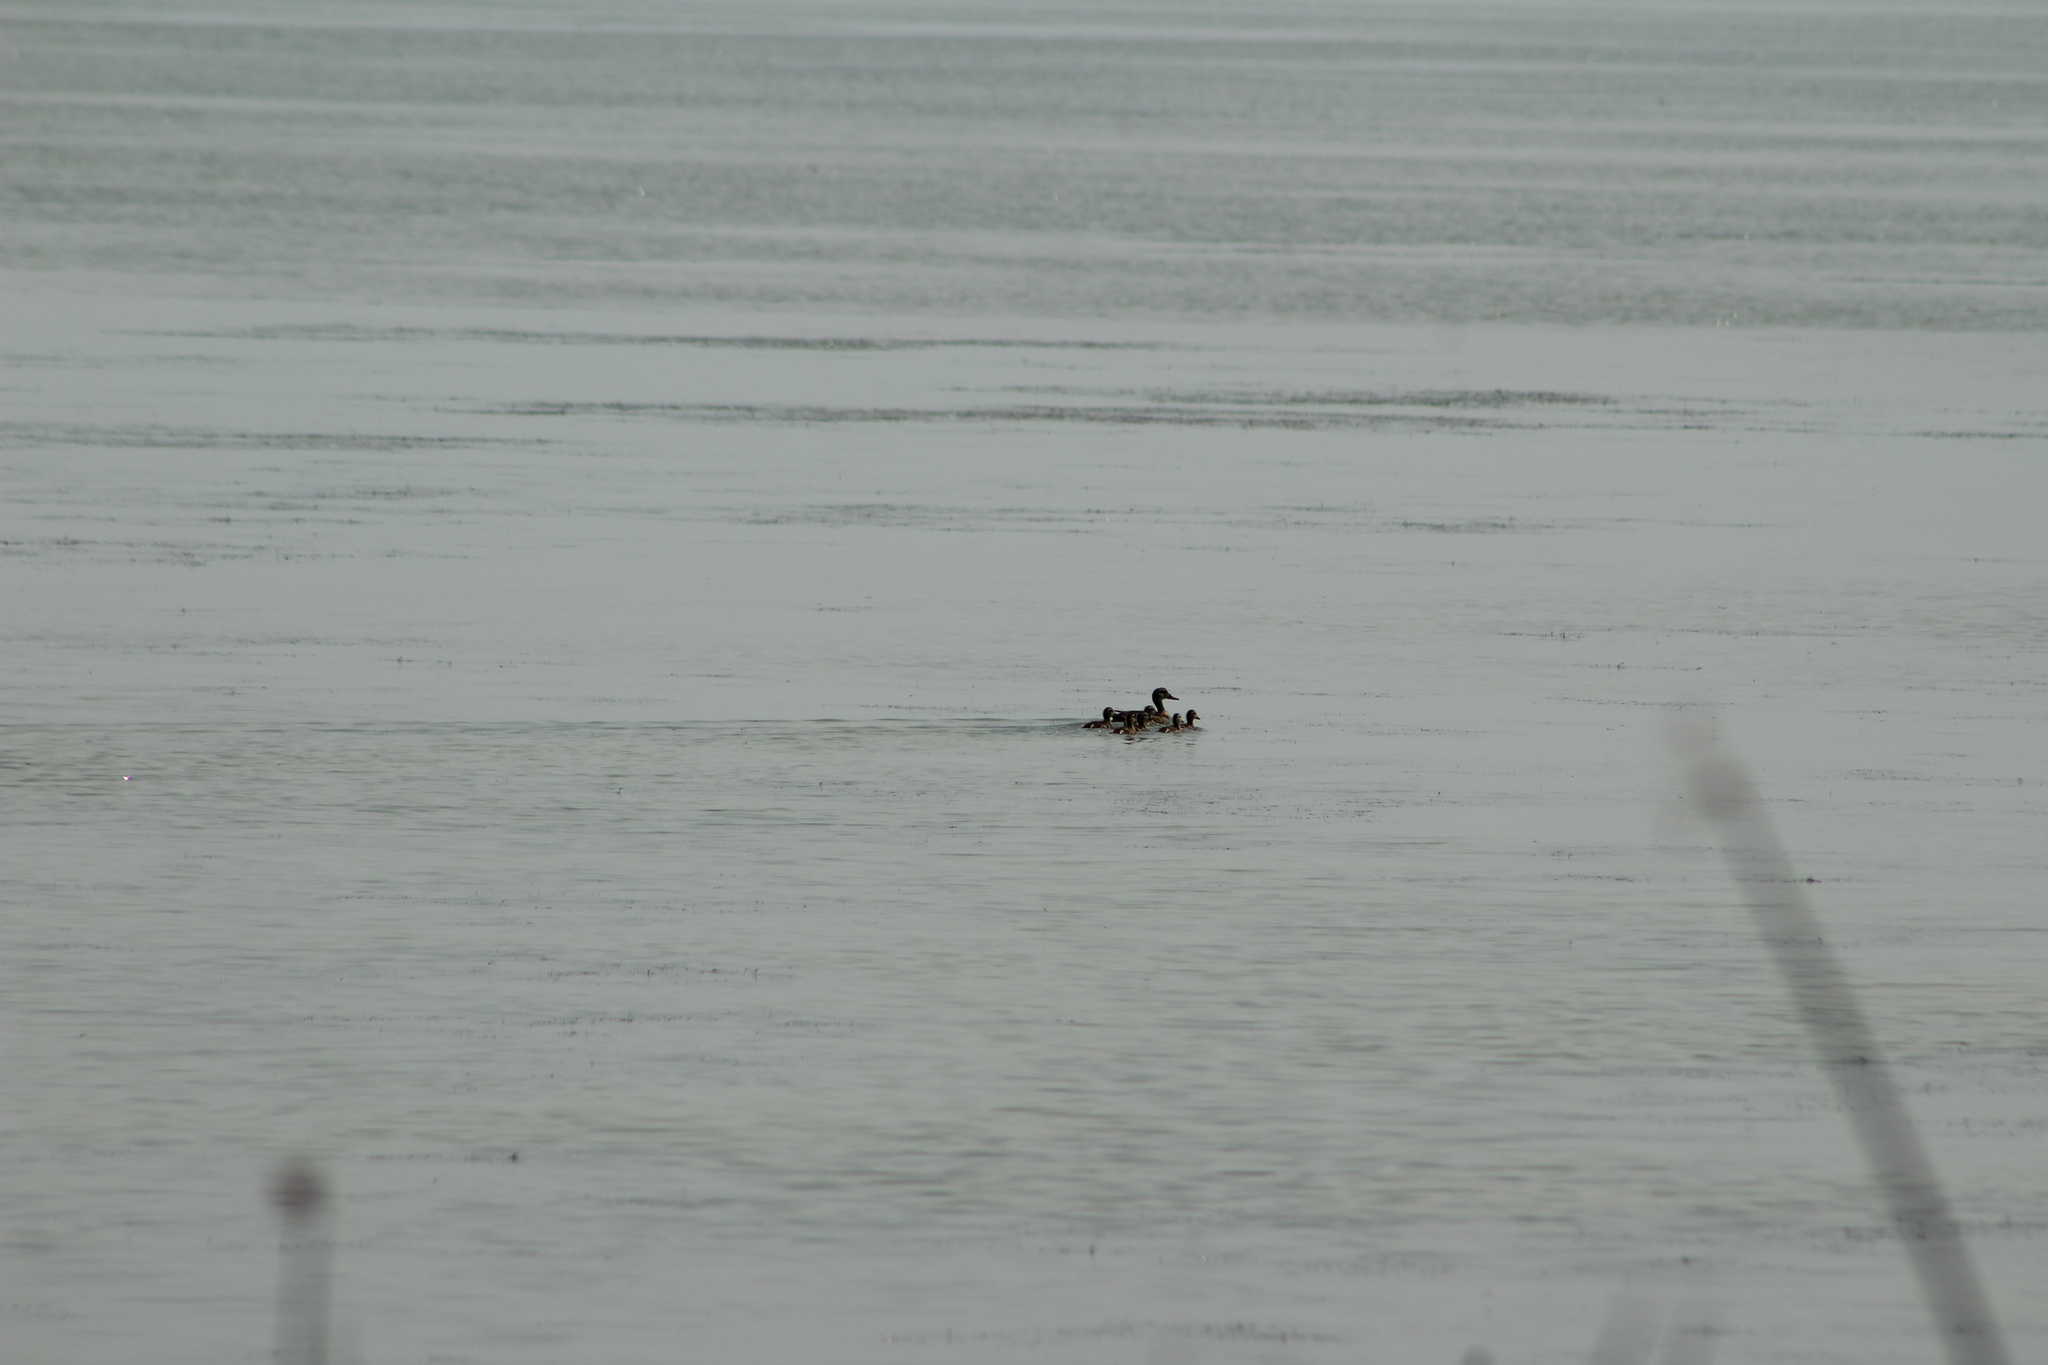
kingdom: Animalia
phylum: Chordata
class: Aves
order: Anseriformes
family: Anatidae
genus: Mareca
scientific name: Mareca strepera
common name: Gadwall
